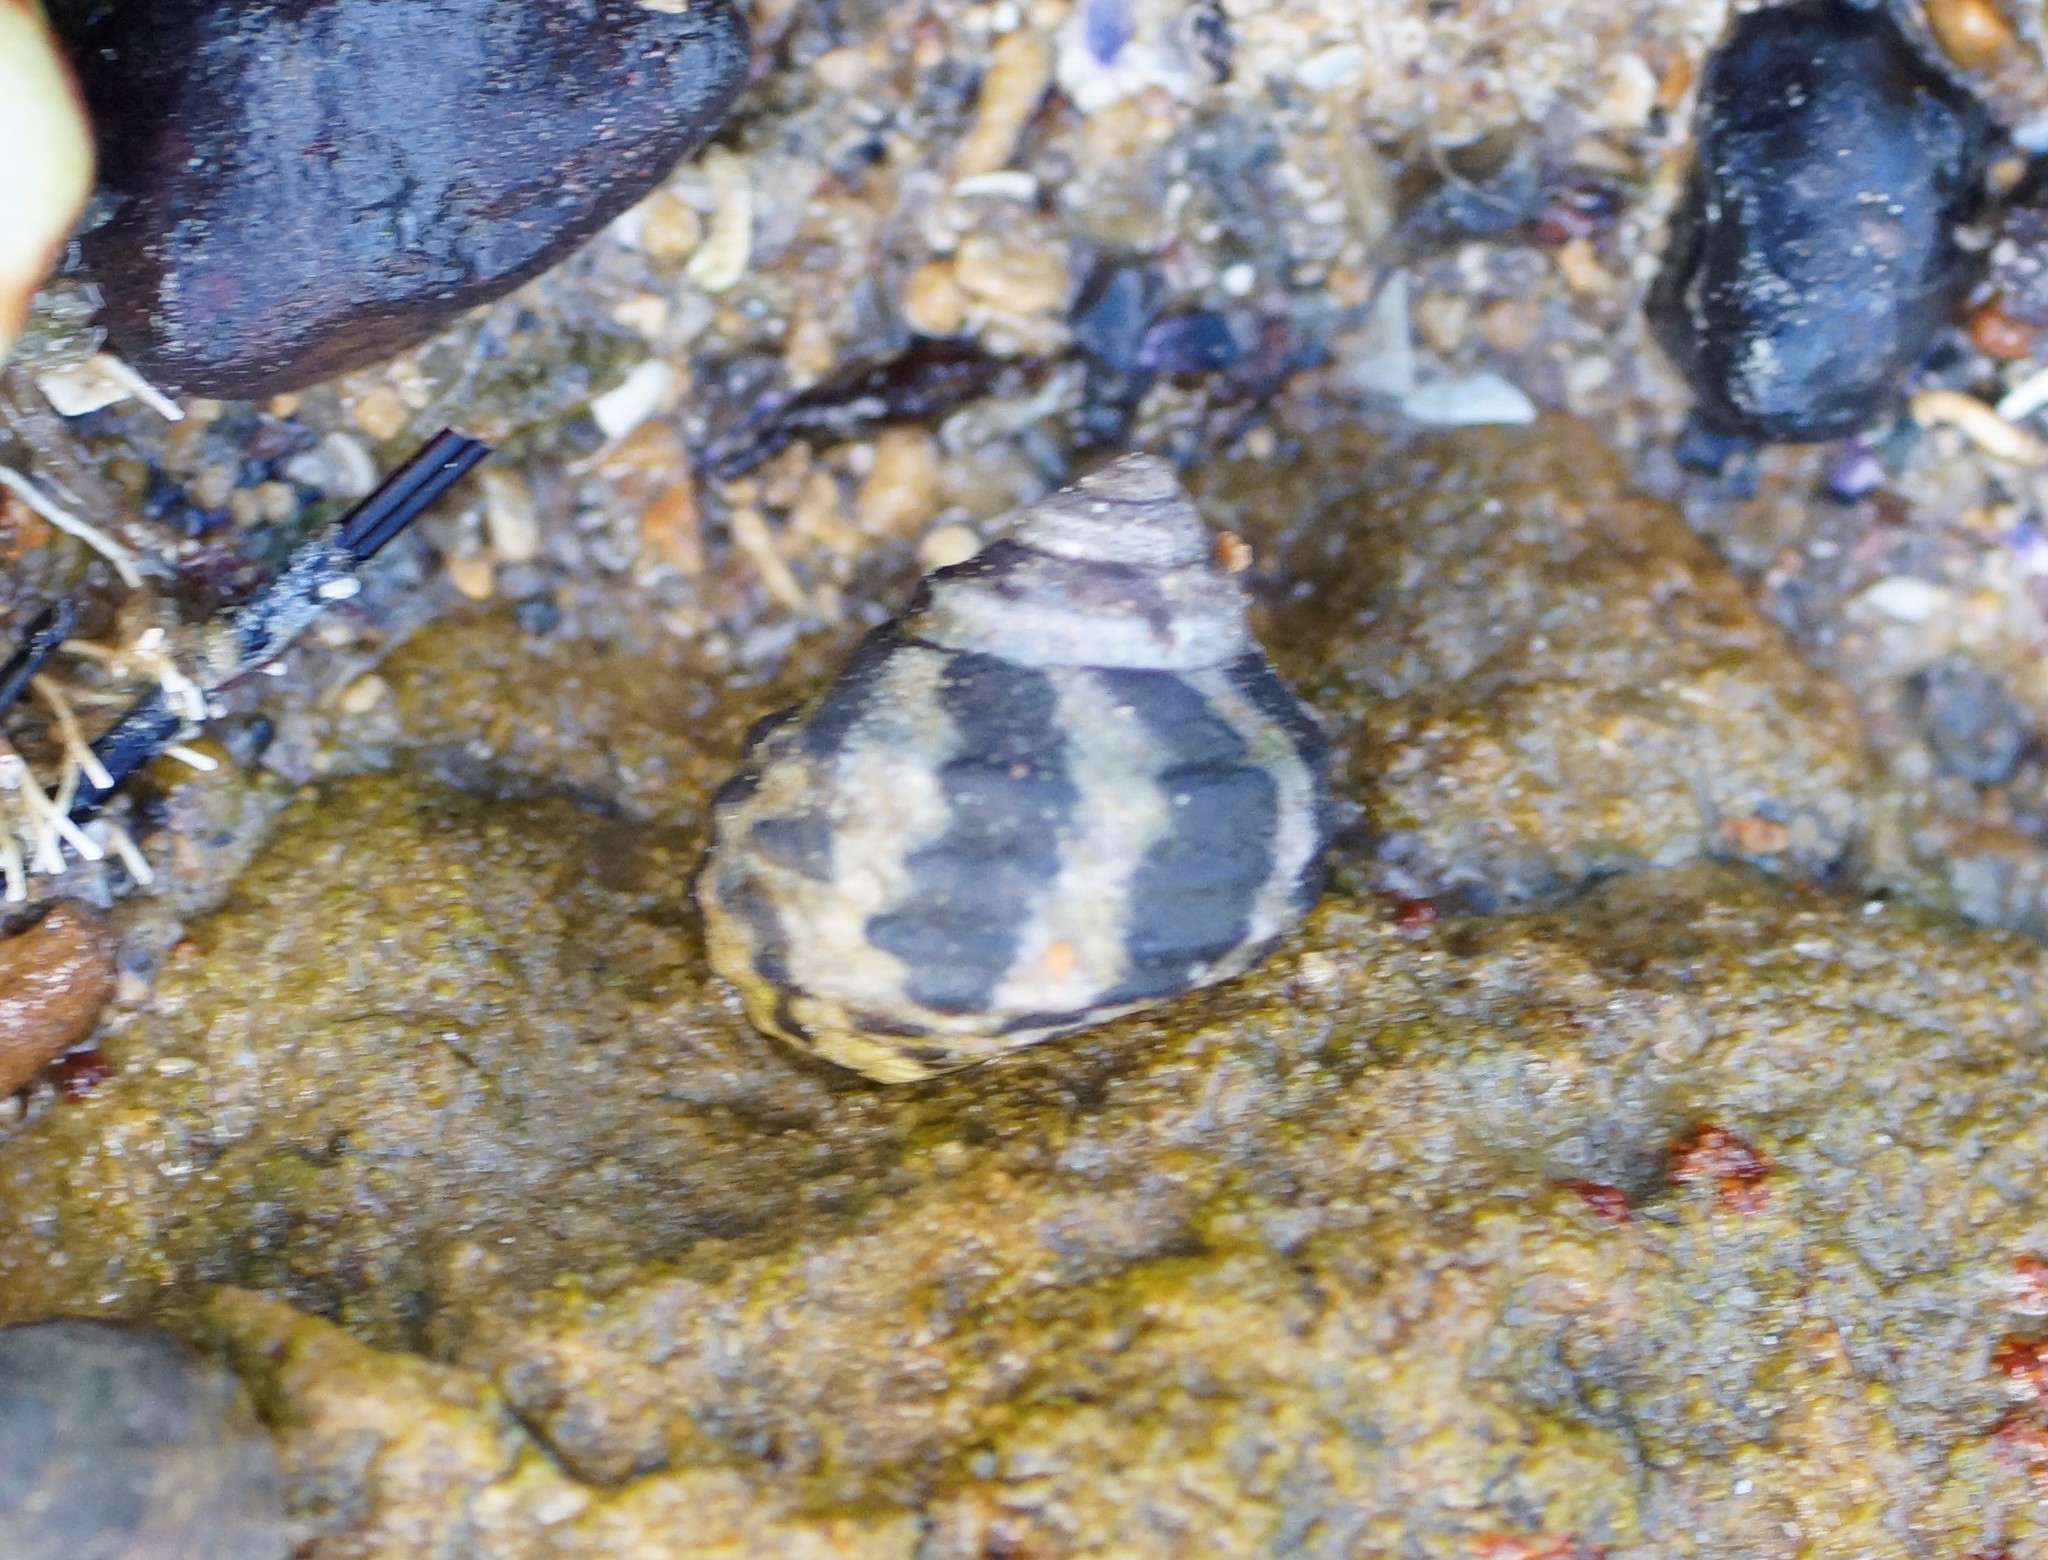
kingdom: Animalia
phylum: Mollusca
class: Gastropoda
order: Trochida
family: Trochidae
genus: Austrocochlea
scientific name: Austrocochlea porcata
